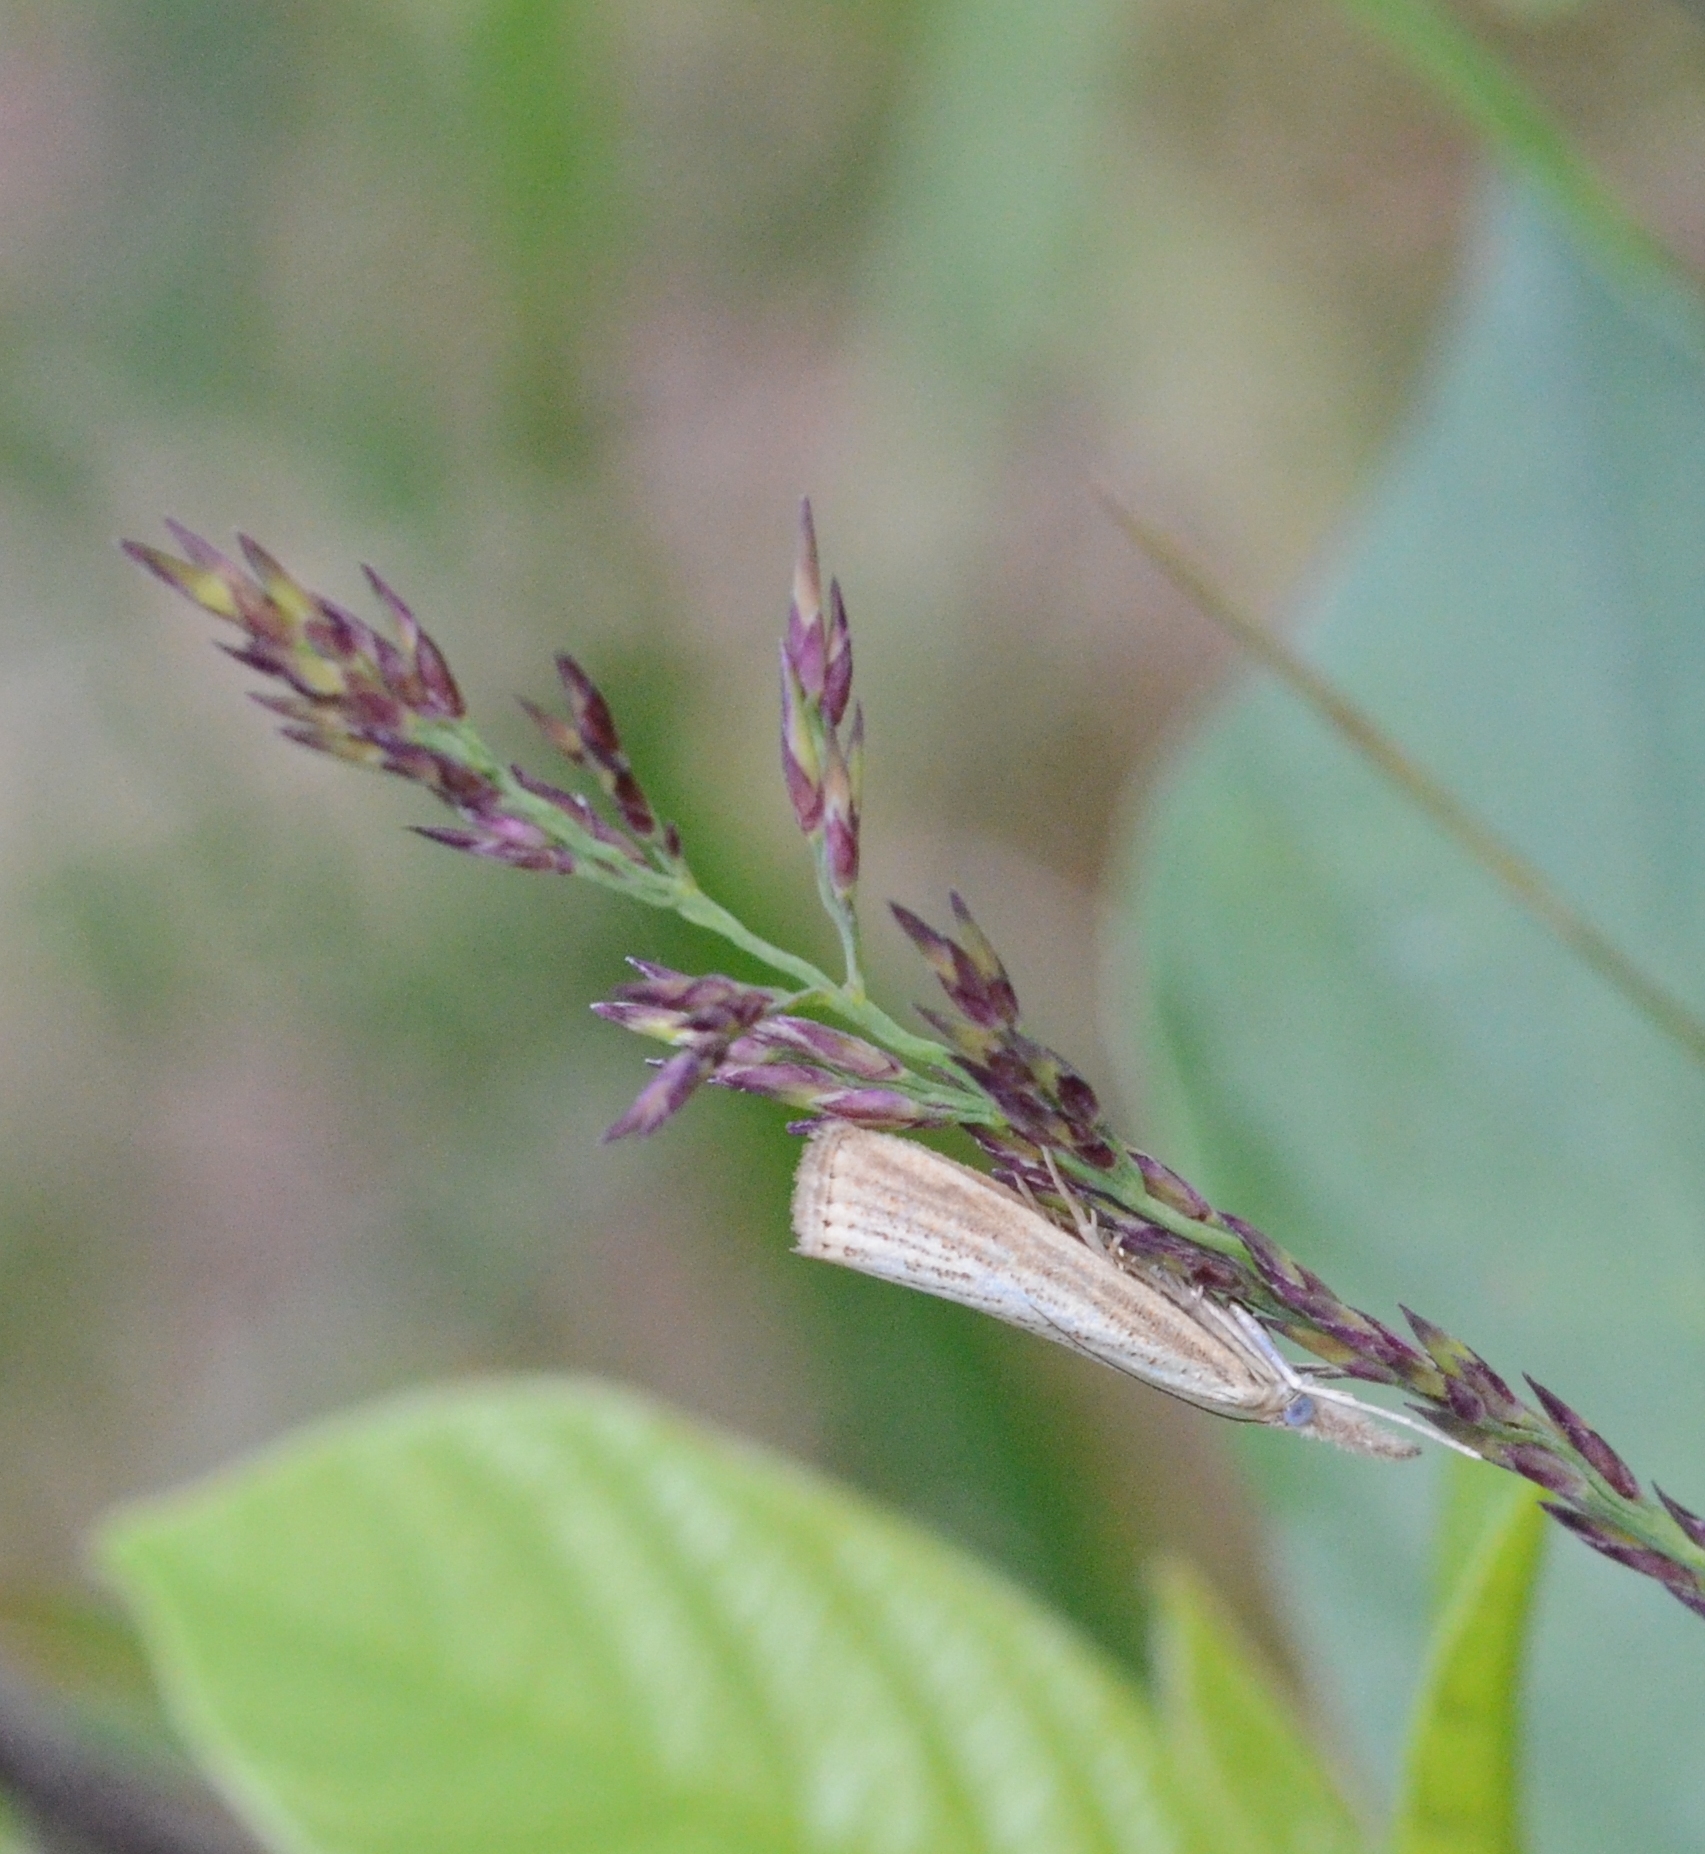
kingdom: Animalia
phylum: Arthropoda
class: Insecta
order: Lepidoptera
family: Crambidae
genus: Agriphila
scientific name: Agriphila straminella
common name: Straw grass-veneer
